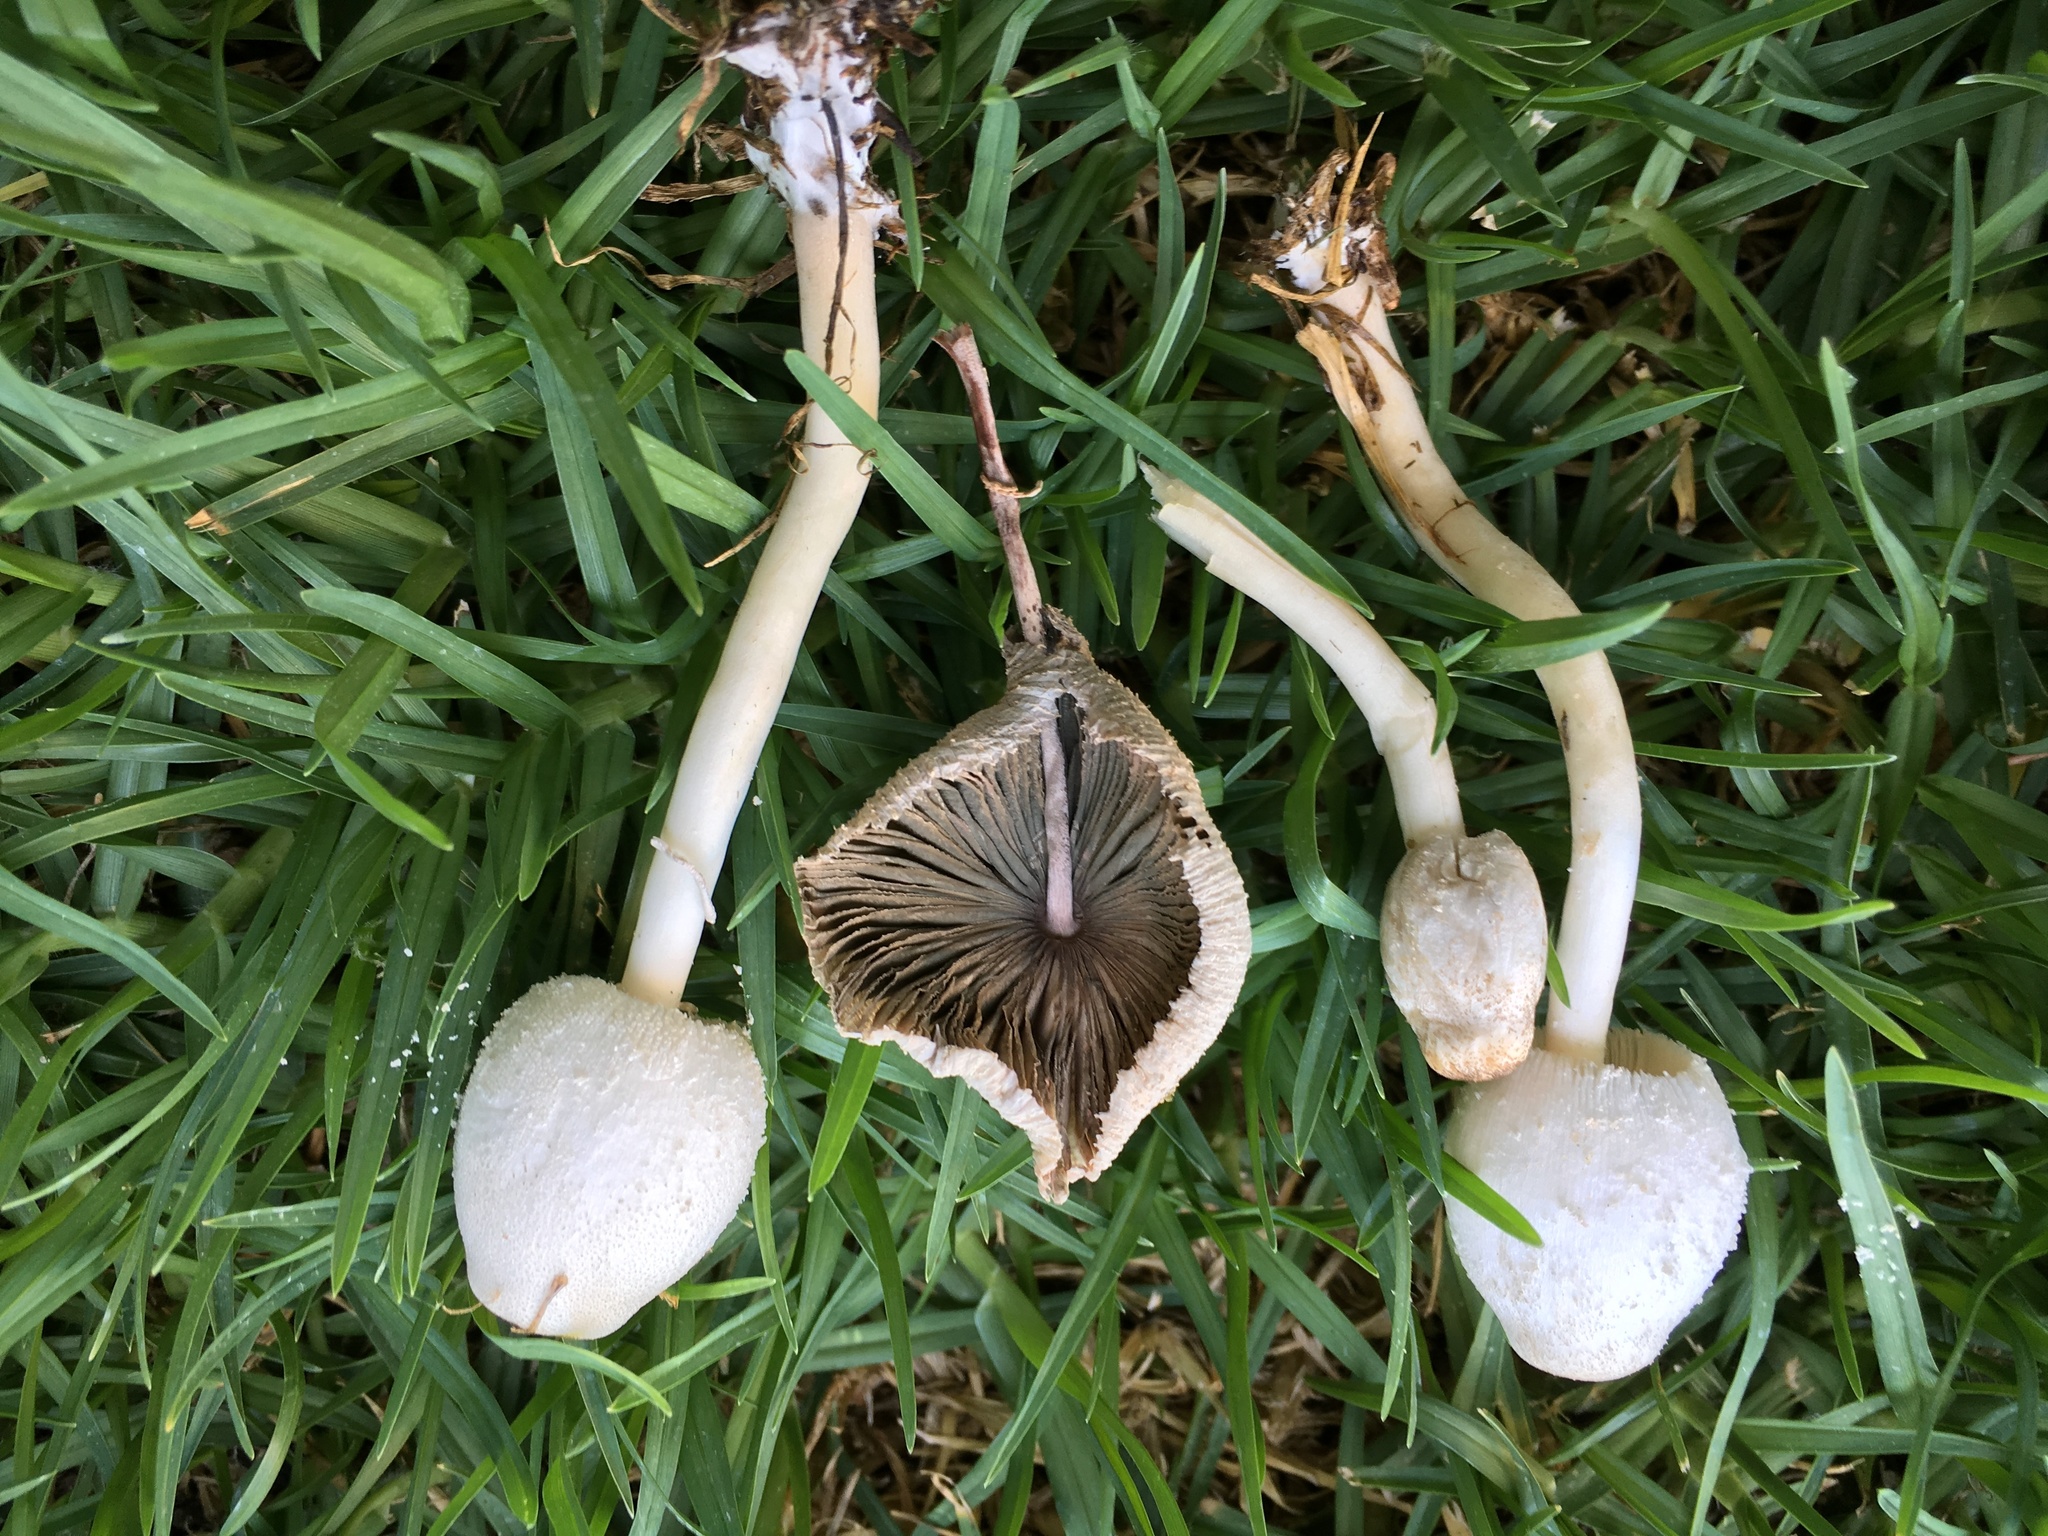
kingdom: Fungi
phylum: Basidiomycota
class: Agaricomycetes
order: Agaricales
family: Agaricaceae
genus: Leucocoprinus
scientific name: Leucocoprinus cepistipes
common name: Onion-stalk parasol
